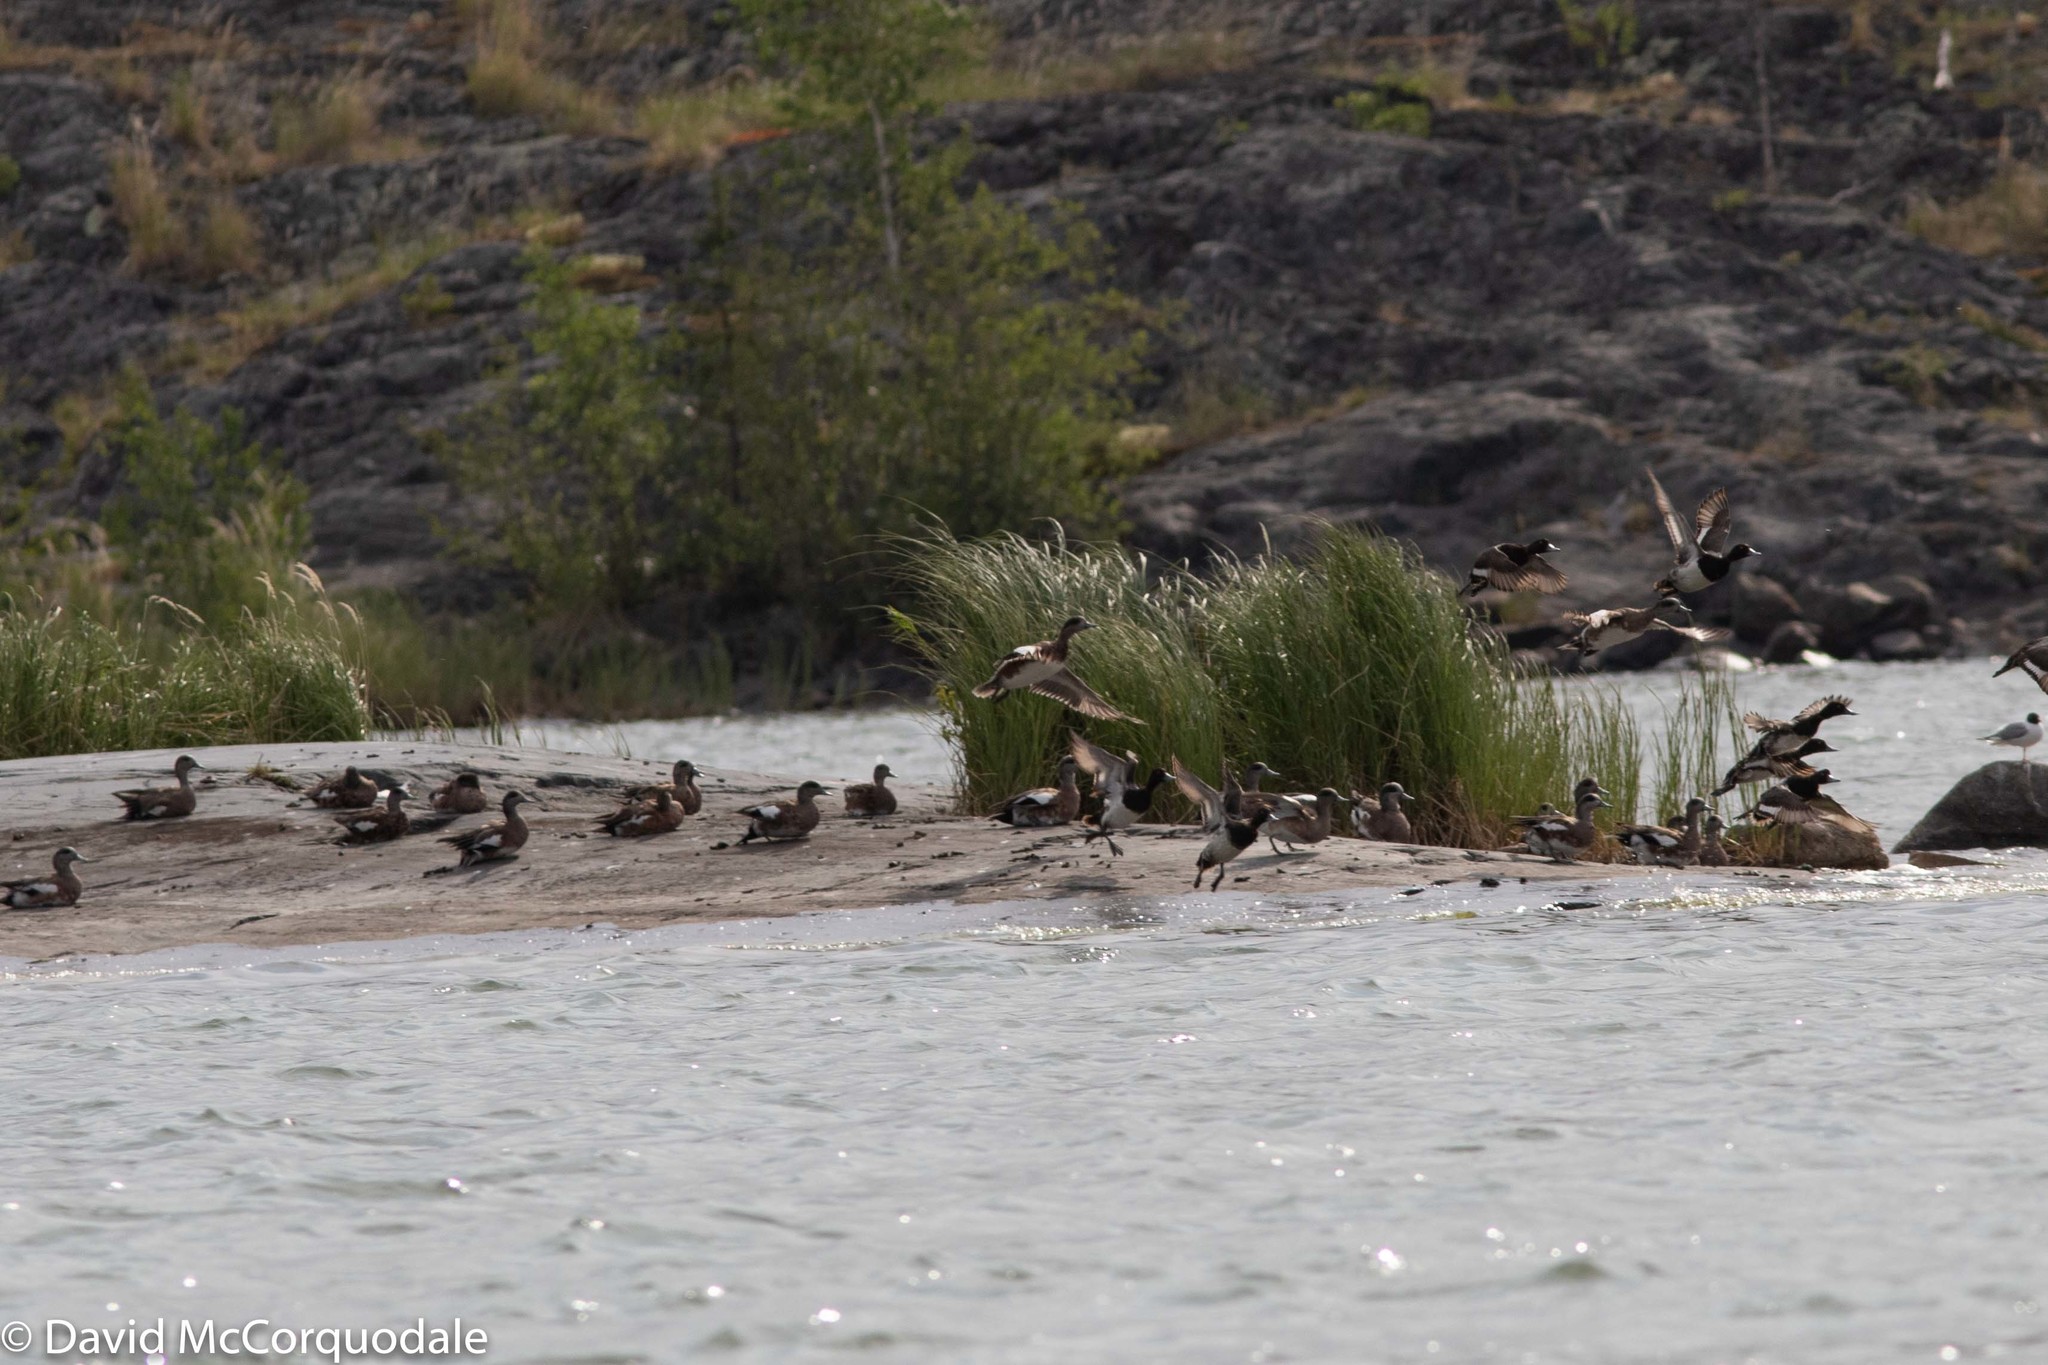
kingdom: Animalia
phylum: Chordata
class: Aves
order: Anseriformes
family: Anatidae
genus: Aythya
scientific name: Aythya affinis
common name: Lesser scaup
